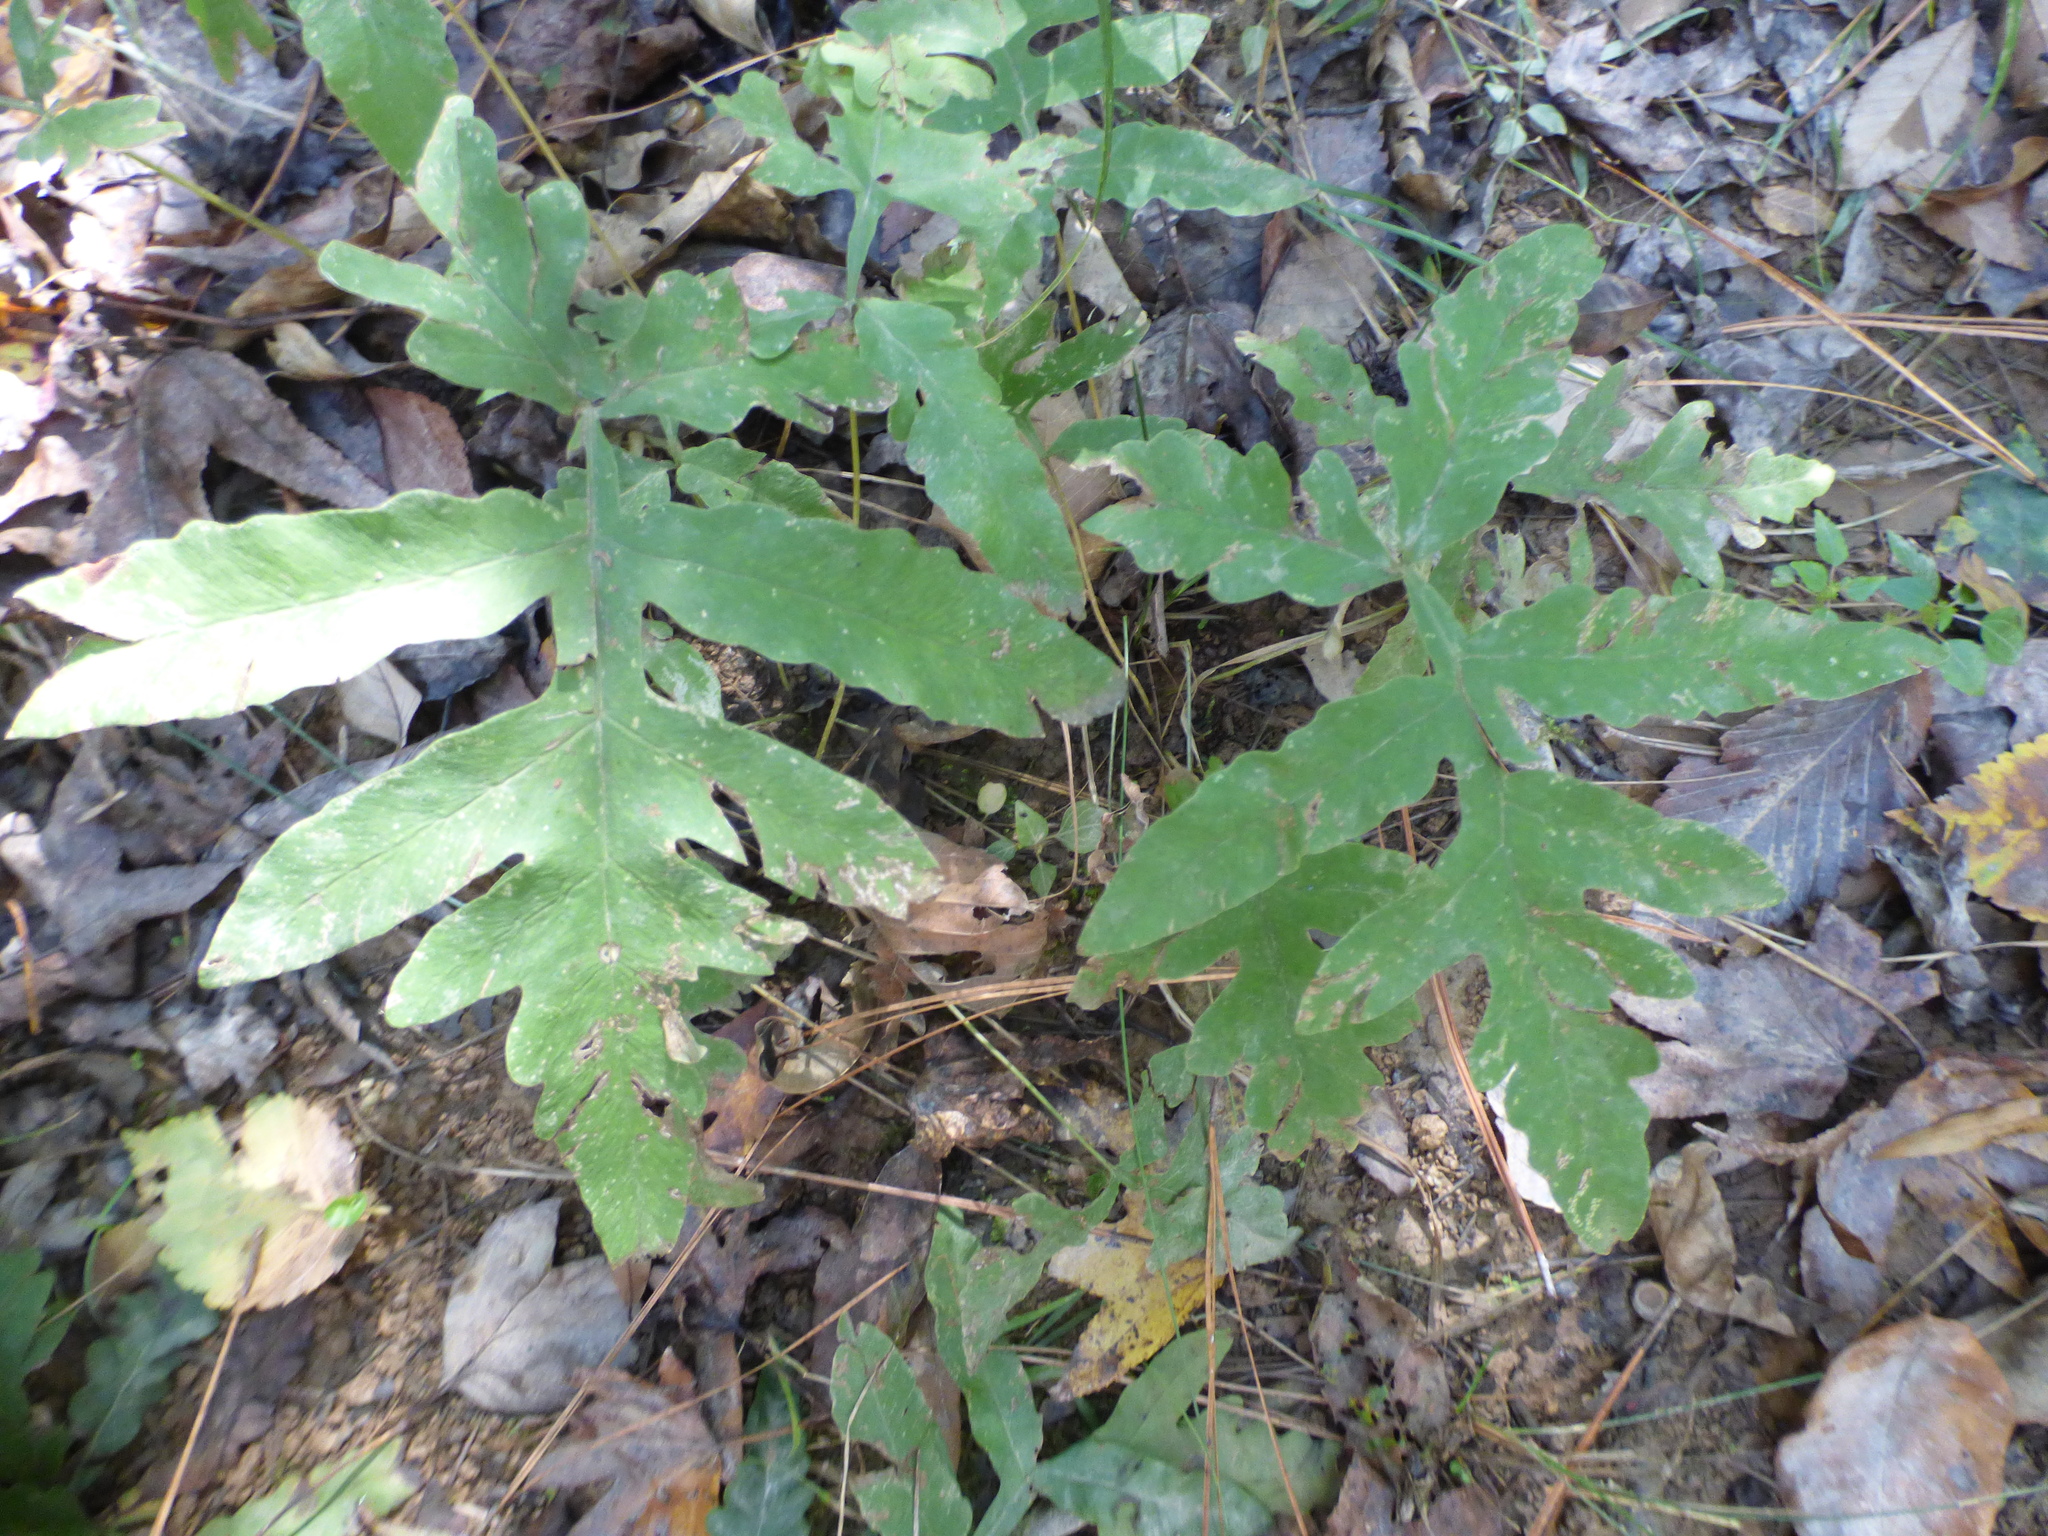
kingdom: Plantae
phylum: Tracheophyta
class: Polypodiopsida
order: Polypodiales
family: Onocleaceae
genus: Onoclea
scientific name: Onoclea sensibilis
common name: Sensitive fern
